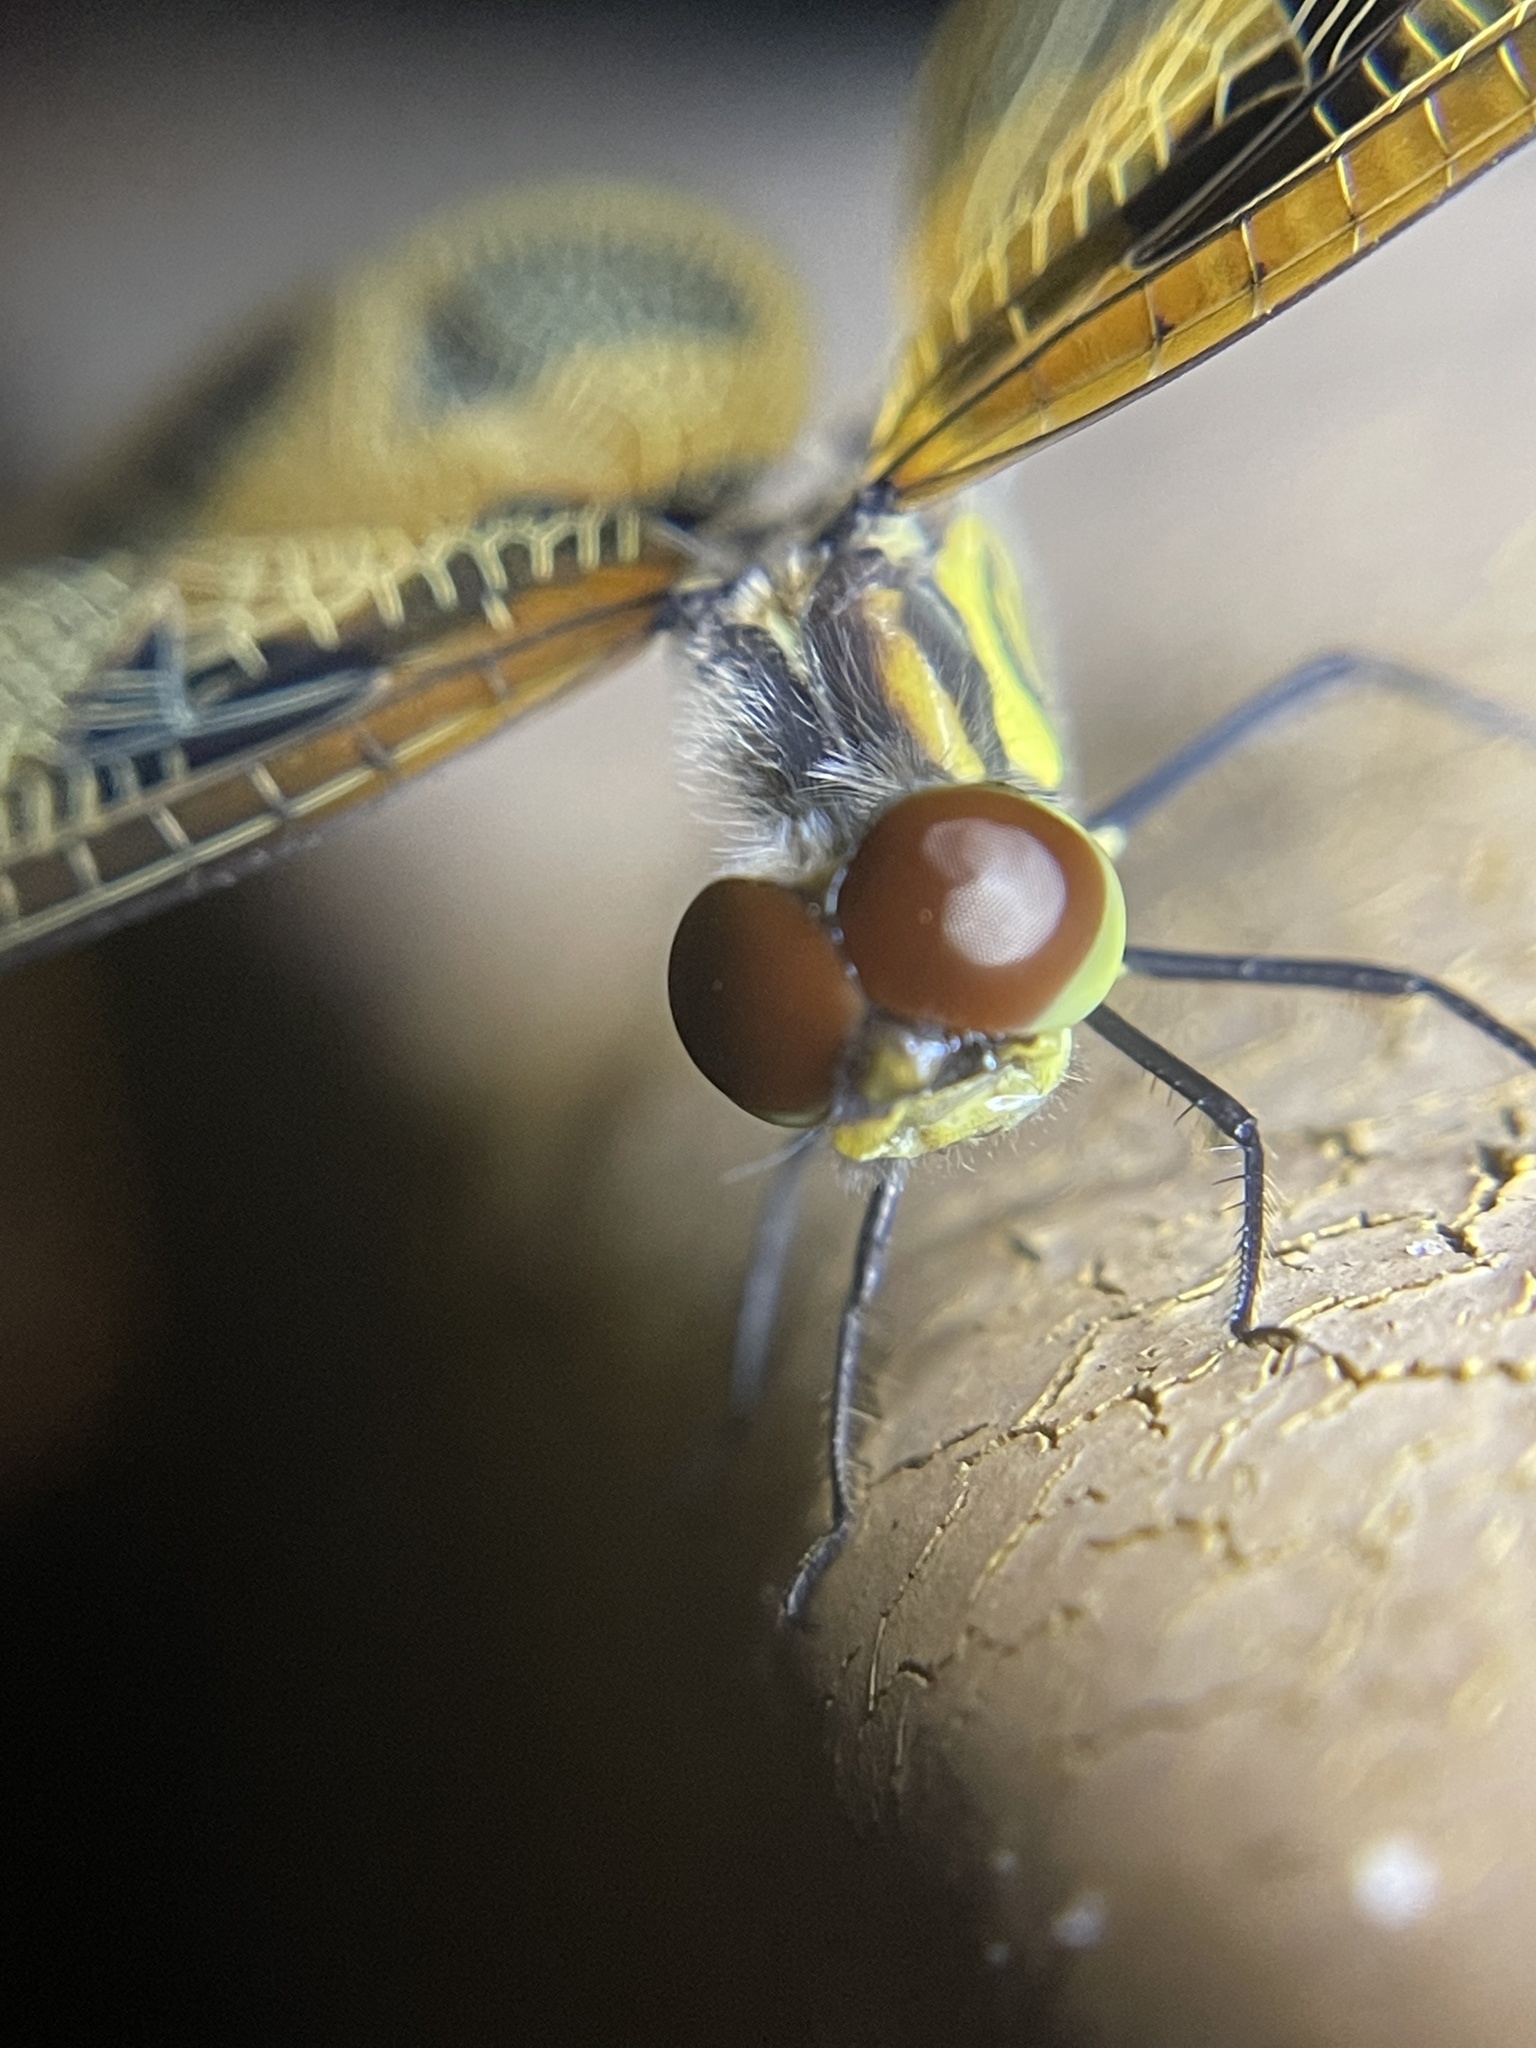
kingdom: Animalia
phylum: Arthropoda
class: Insecta
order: Odonata
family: Libellulidae
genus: Celithemis
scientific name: Celithemis eponina
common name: Halloween pennant
